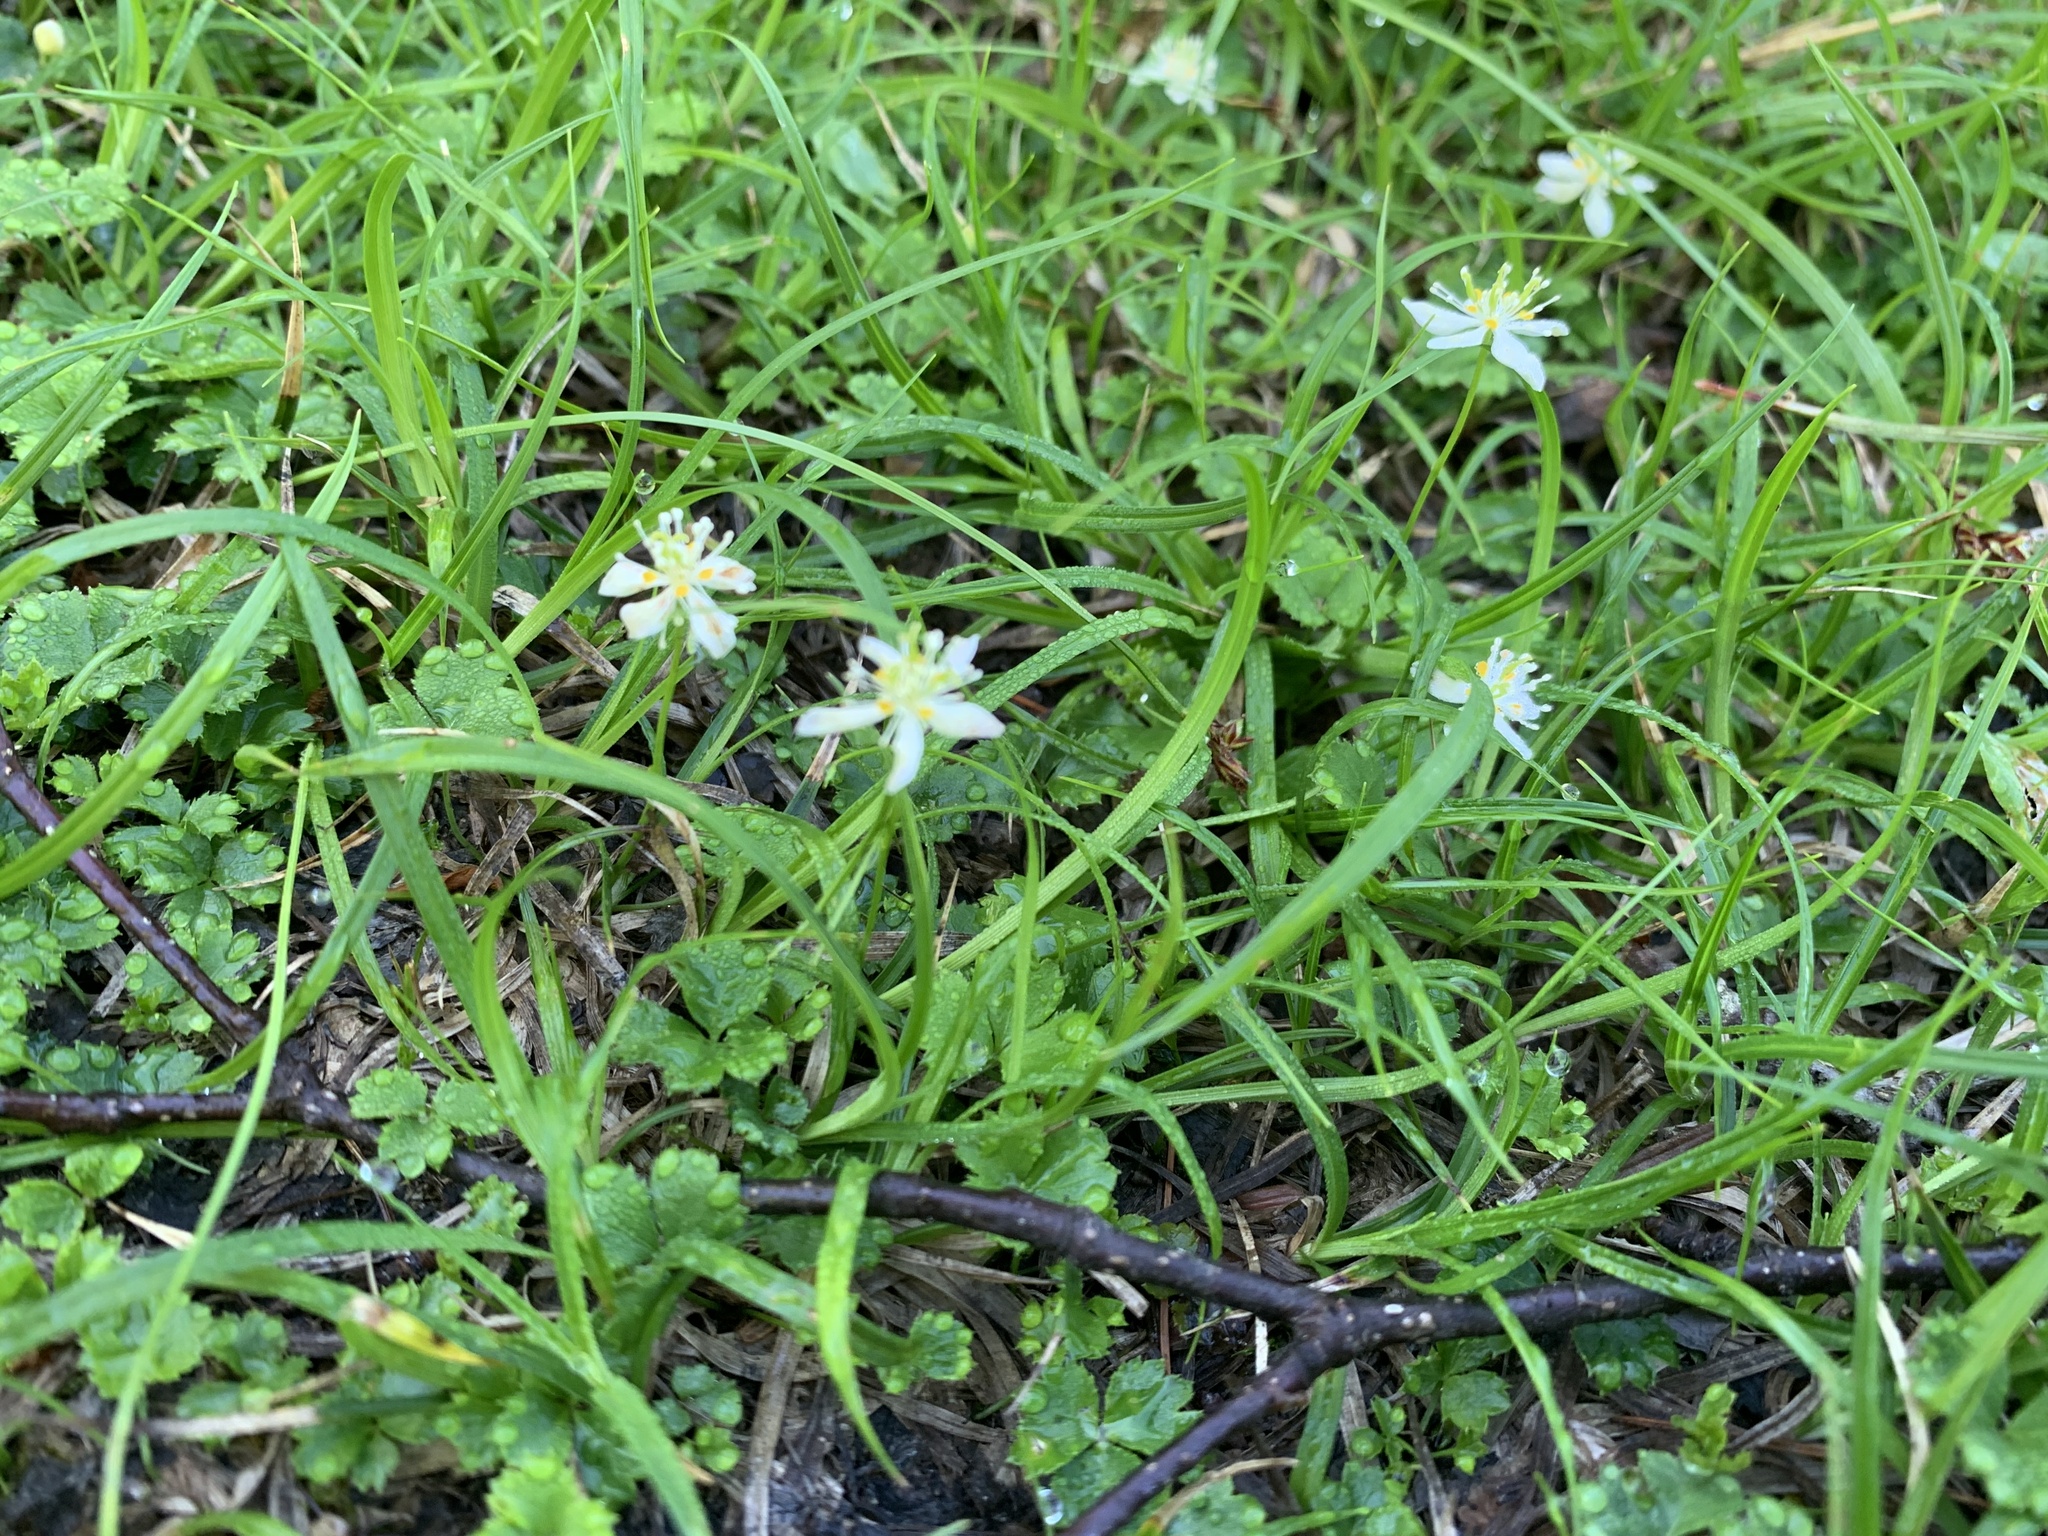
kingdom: Plantae
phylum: Tracheophyta
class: Magnoliopsida
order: Ranunculales
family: Ranunculaceae
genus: Coptis
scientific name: Coptis trifolia
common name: Canker-root
